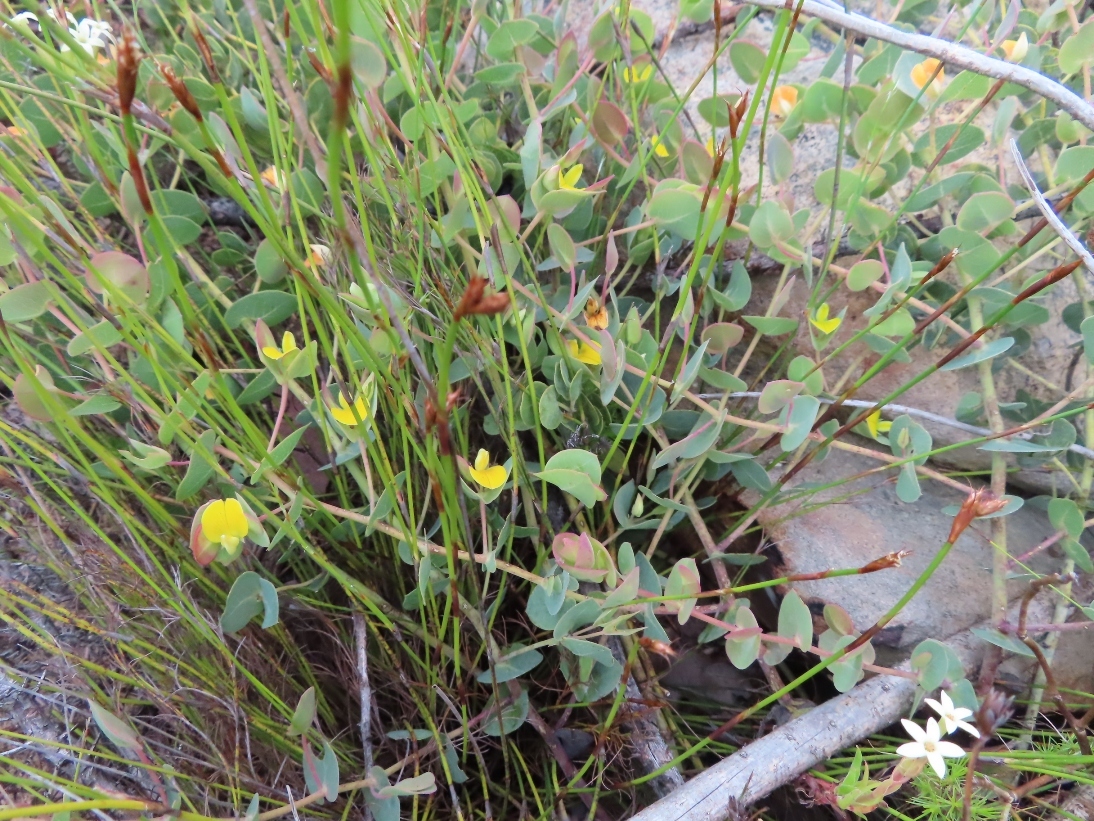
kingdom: Plantae
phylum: Tracheophyta
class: Magnoliopsida
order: Fabales
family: Fabaceae
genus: Rafnia
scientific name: Rafnia acuminata
